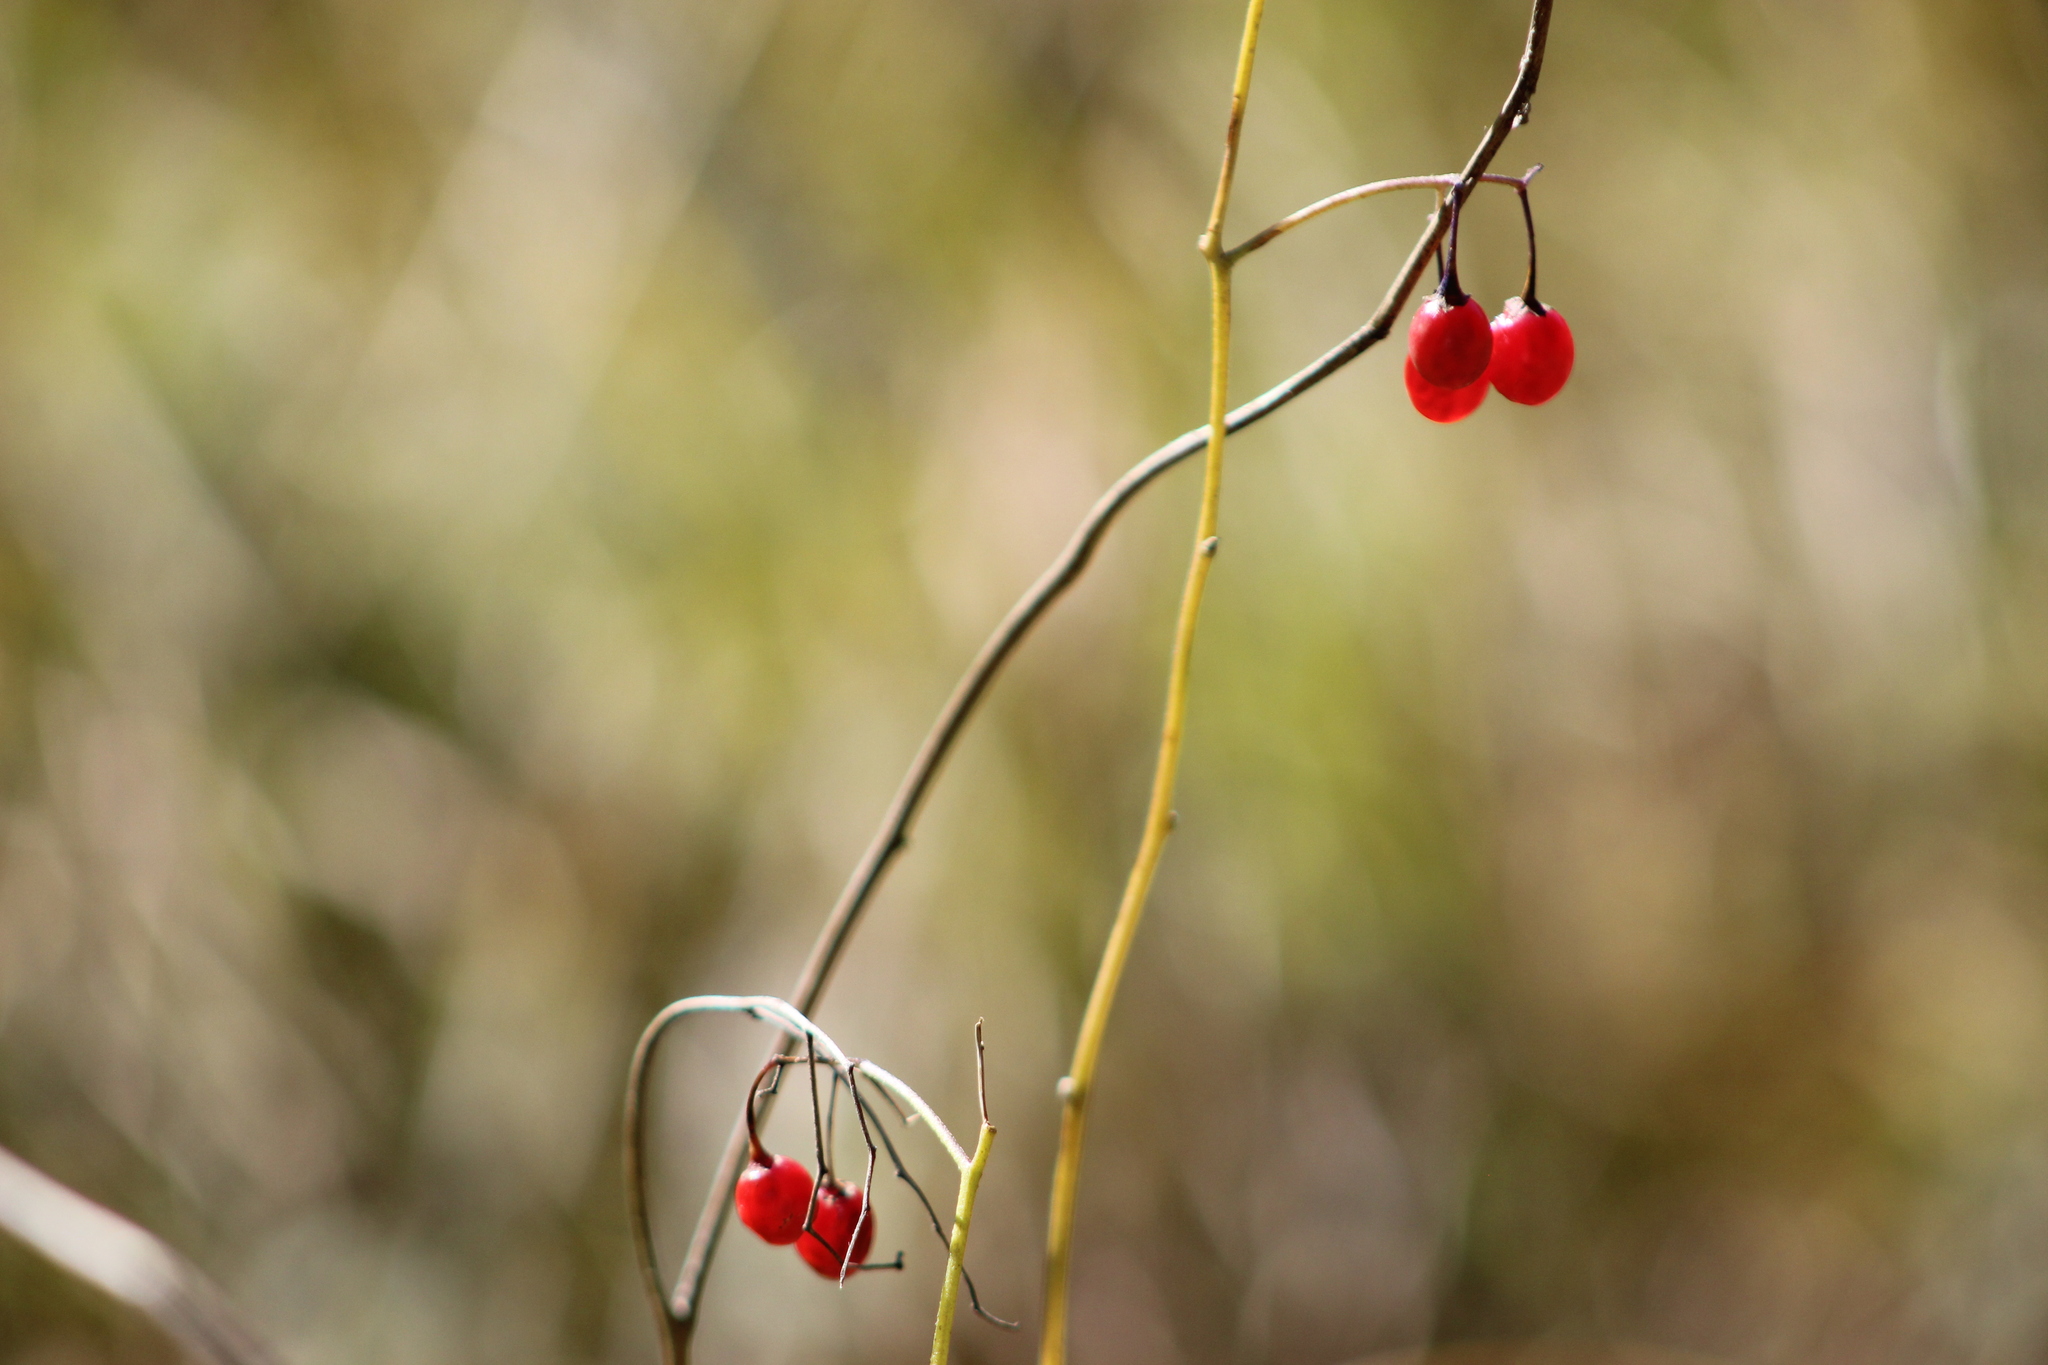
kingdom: Plantae
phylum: Tracheophyta
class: Magnoliopsida
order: Solanales
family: Solanaceae
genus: Solanum
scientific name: Solanum dulcamara
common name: Climbing nightshade
